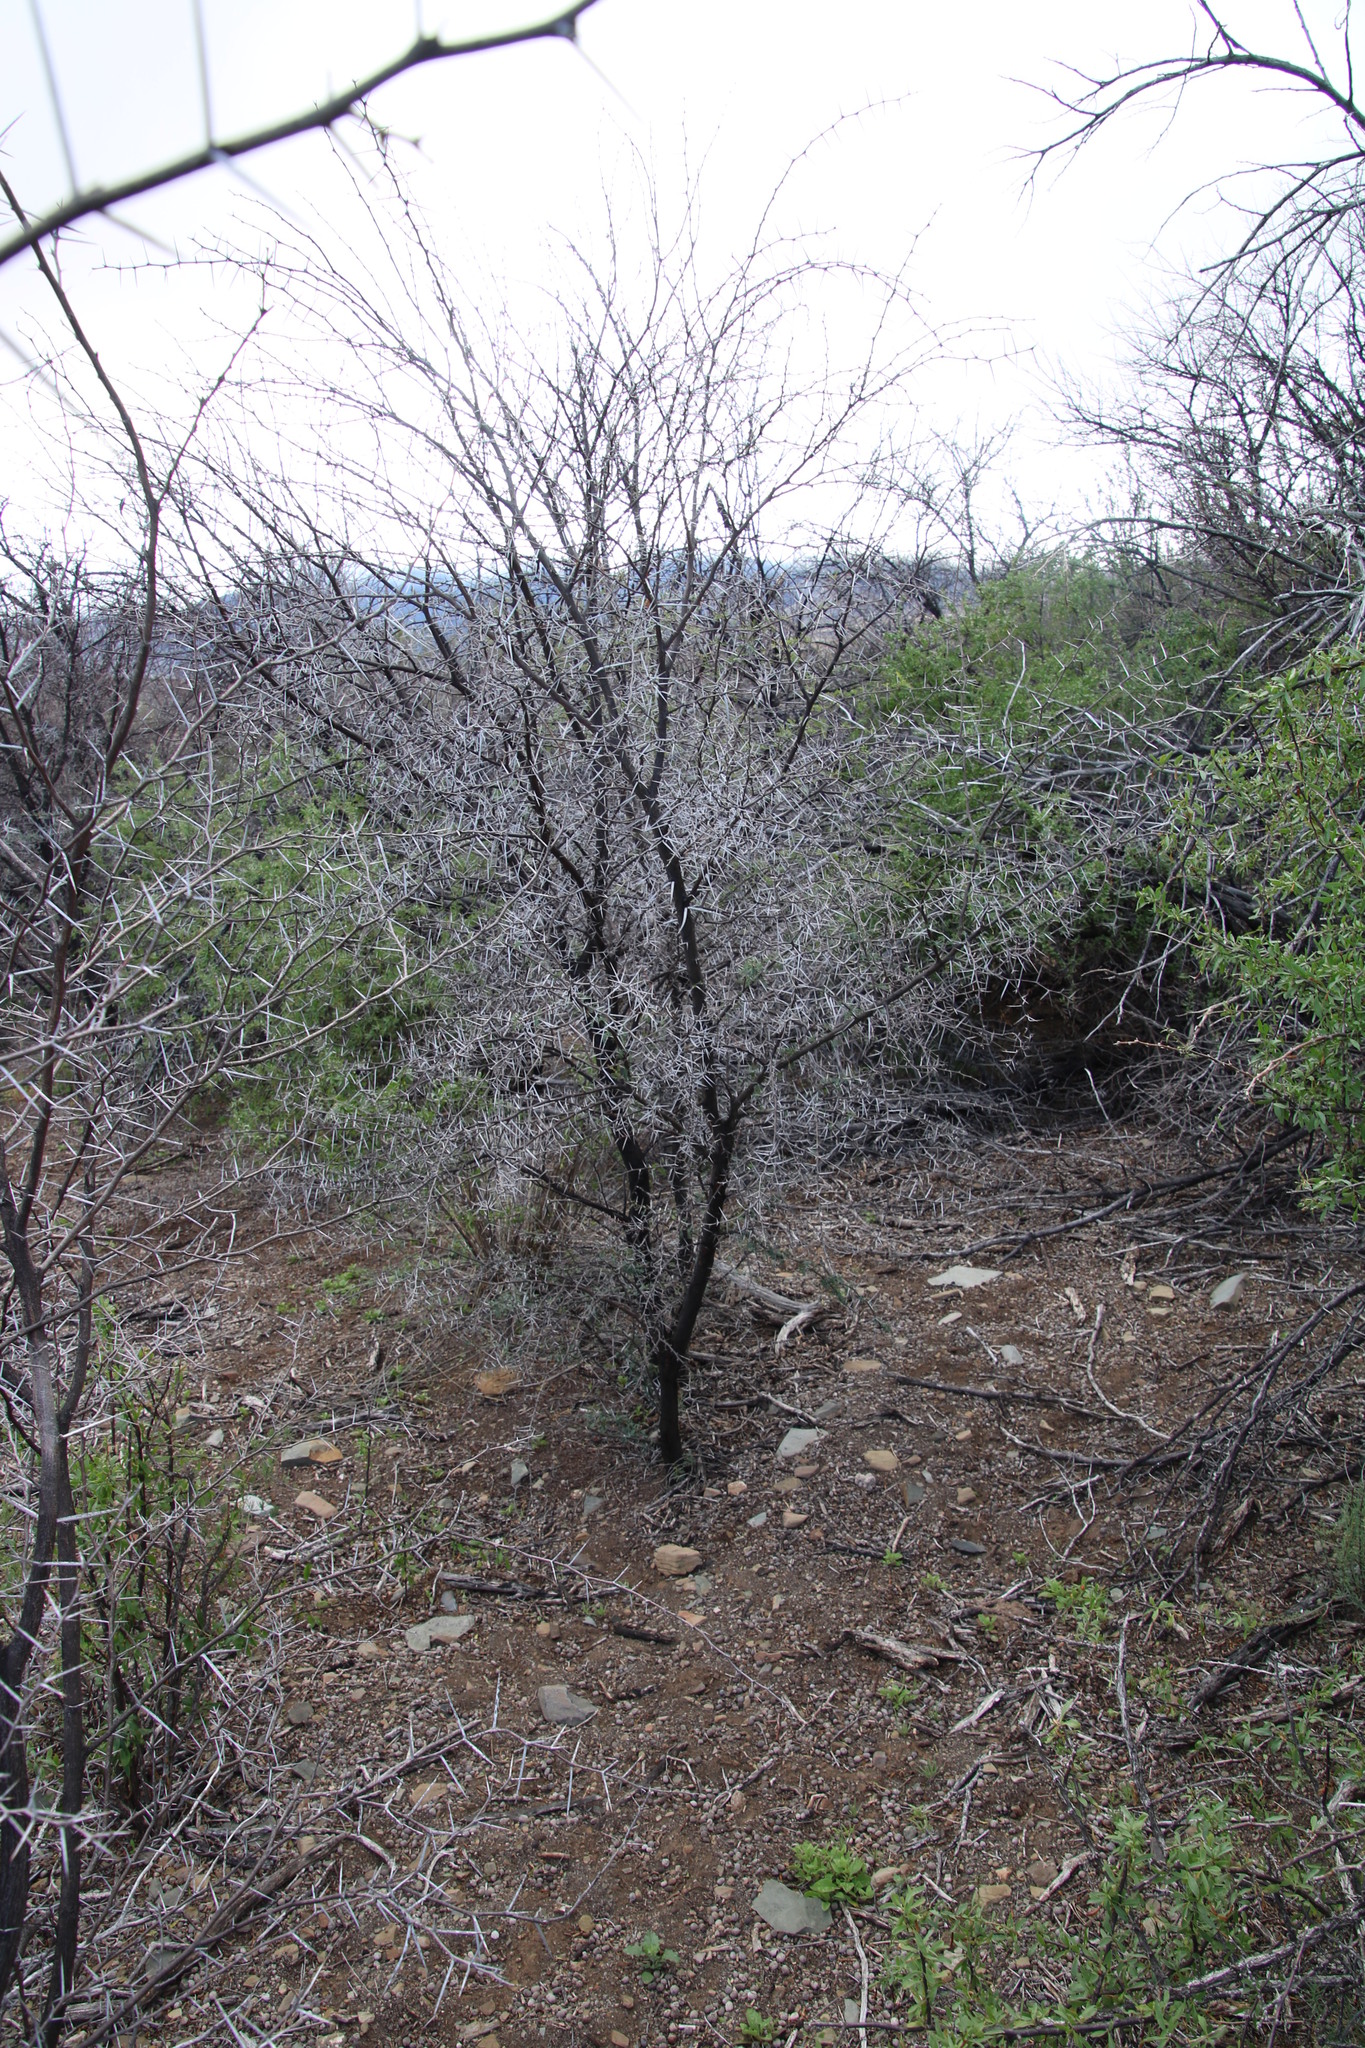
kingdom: Plantae
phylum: Tracheophyta
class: Magnoliopsida
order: Fabales
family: Fabaceae
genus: Vachellia
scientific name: Vachellia karroo
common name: Sweet thorn
